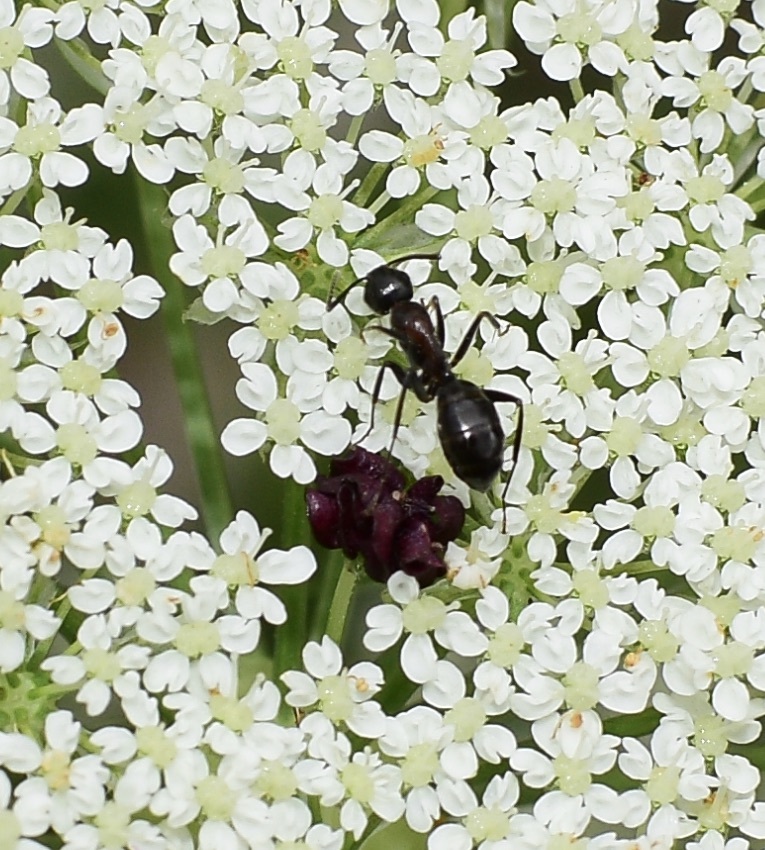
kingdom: Animalia
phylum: Arthropoda
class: Insecta
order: Hymenoptera
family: Formicidae
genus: Camponotus
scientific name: Camponotus nearcticus
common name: Smaller carpenter ant
